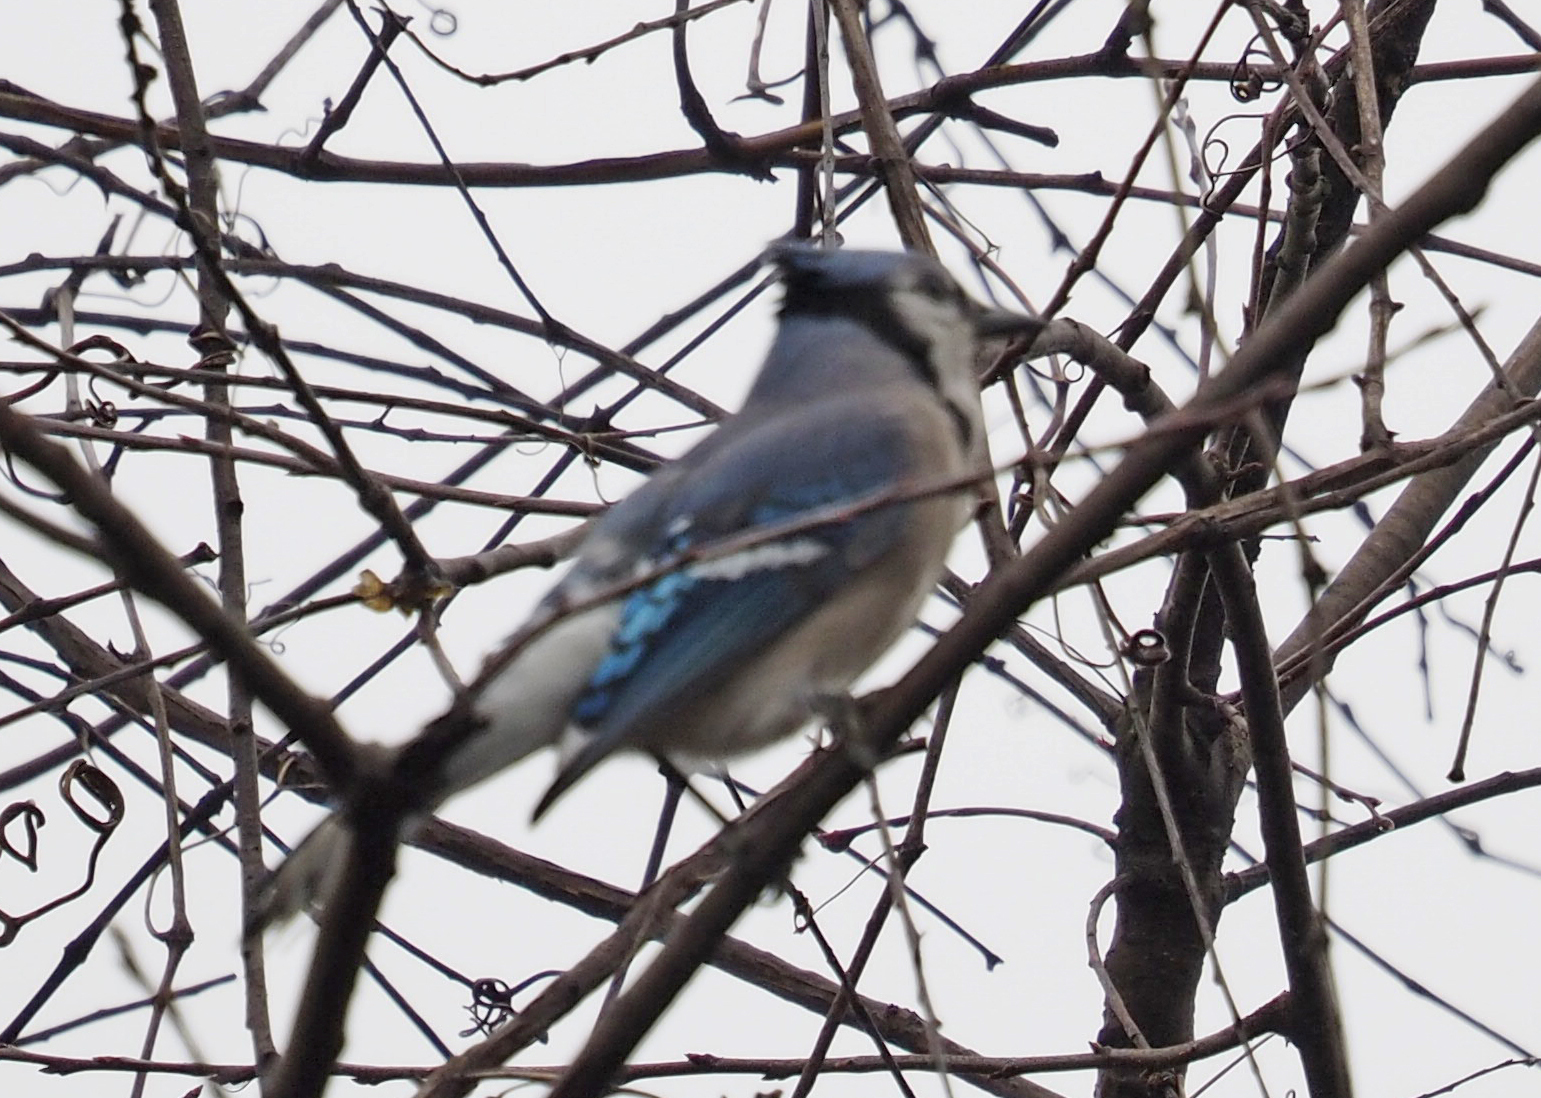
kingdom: Animalia
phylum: Chordata
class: Aves
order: Passeriformes
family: Corvidae
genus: Cyanocitta
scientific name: Cyanocitta cristata
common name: Blue jay
